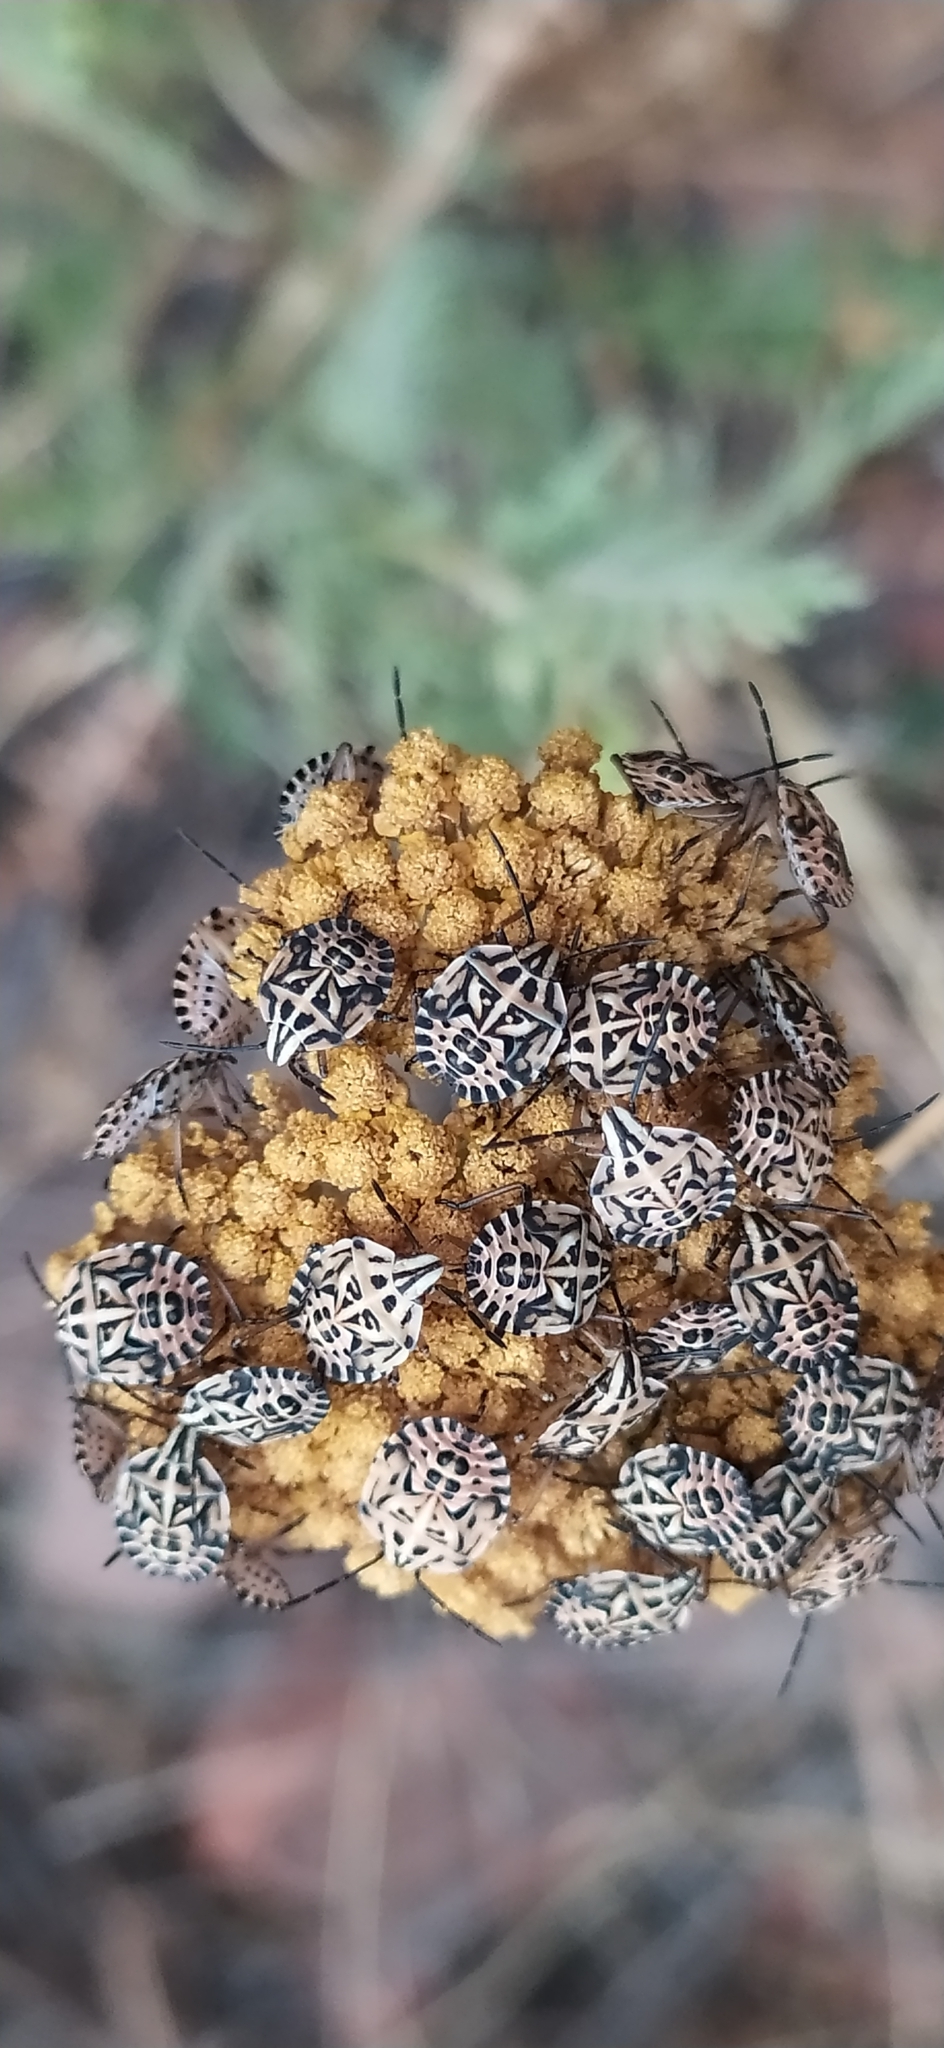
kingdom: Animalia
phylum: Arthropoda
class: Insecta
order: Hemiptera
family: Miridae
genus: Orthops
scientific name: Orthops kalmii
